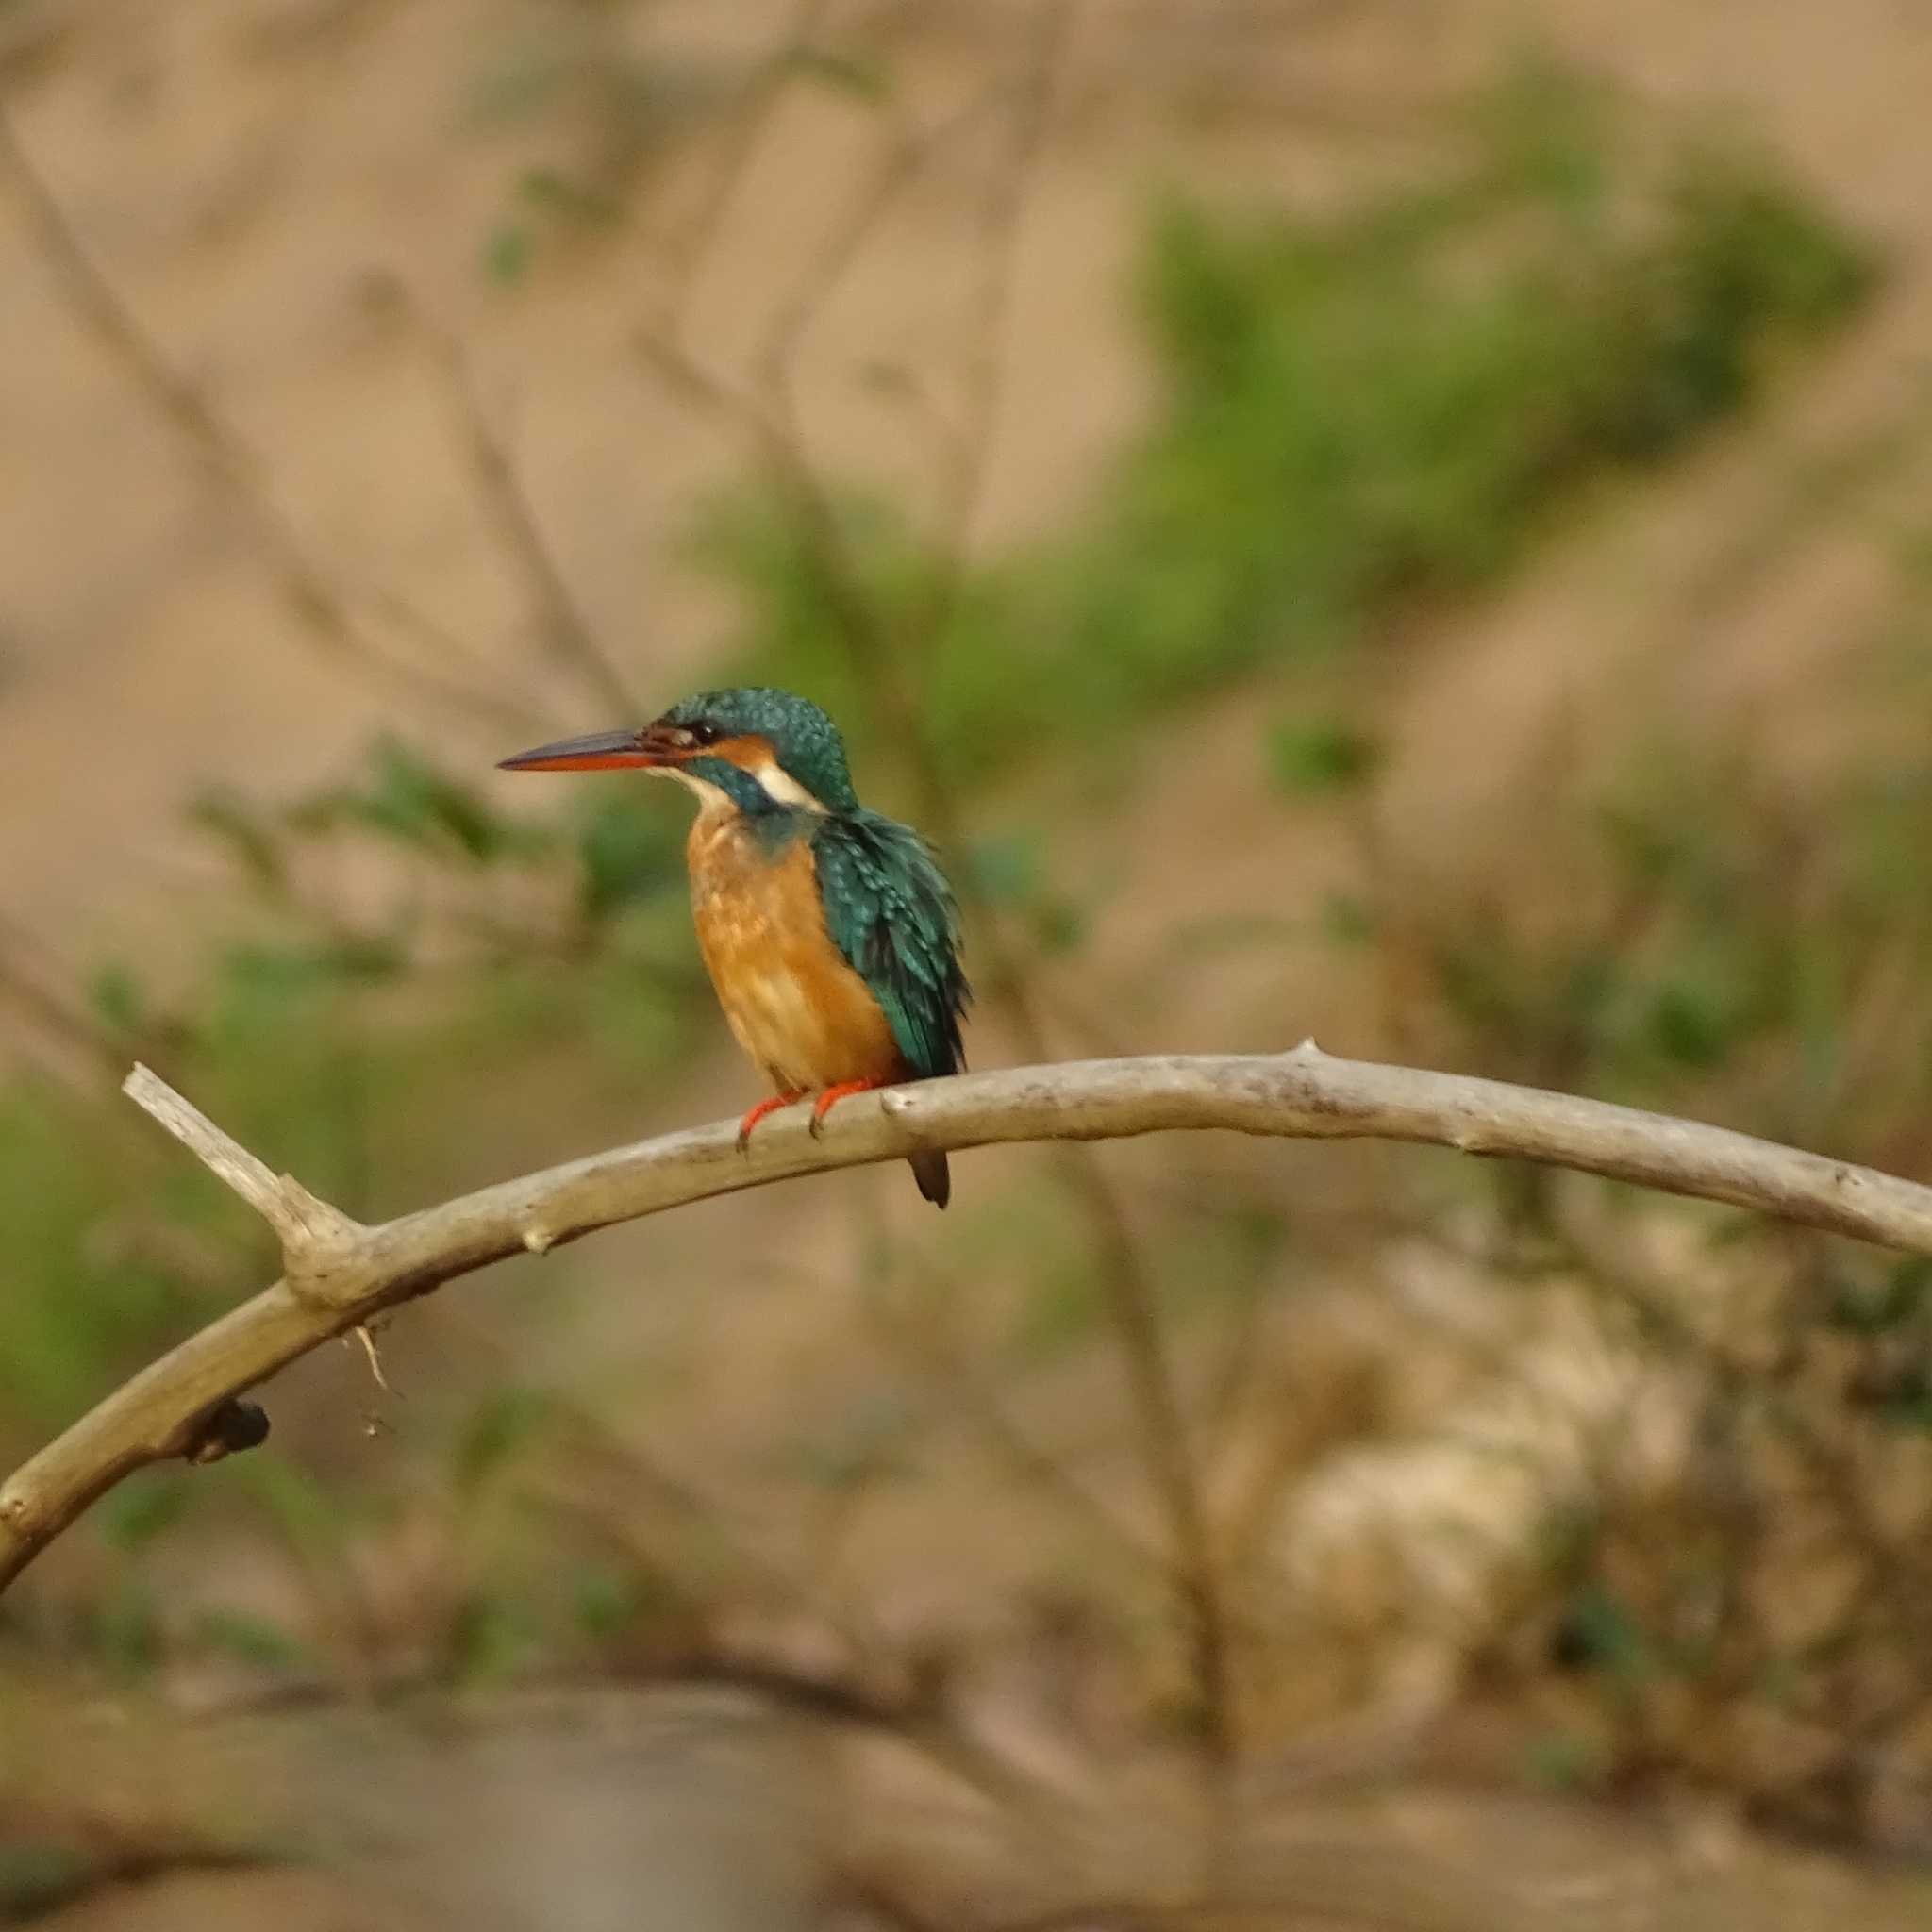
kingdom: Animalia
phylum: Chordata
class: Aves
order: Coraciiformes
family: Alcedinidae
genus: Alcedo
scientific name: Alcedo atthis
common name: Common kingfisher
